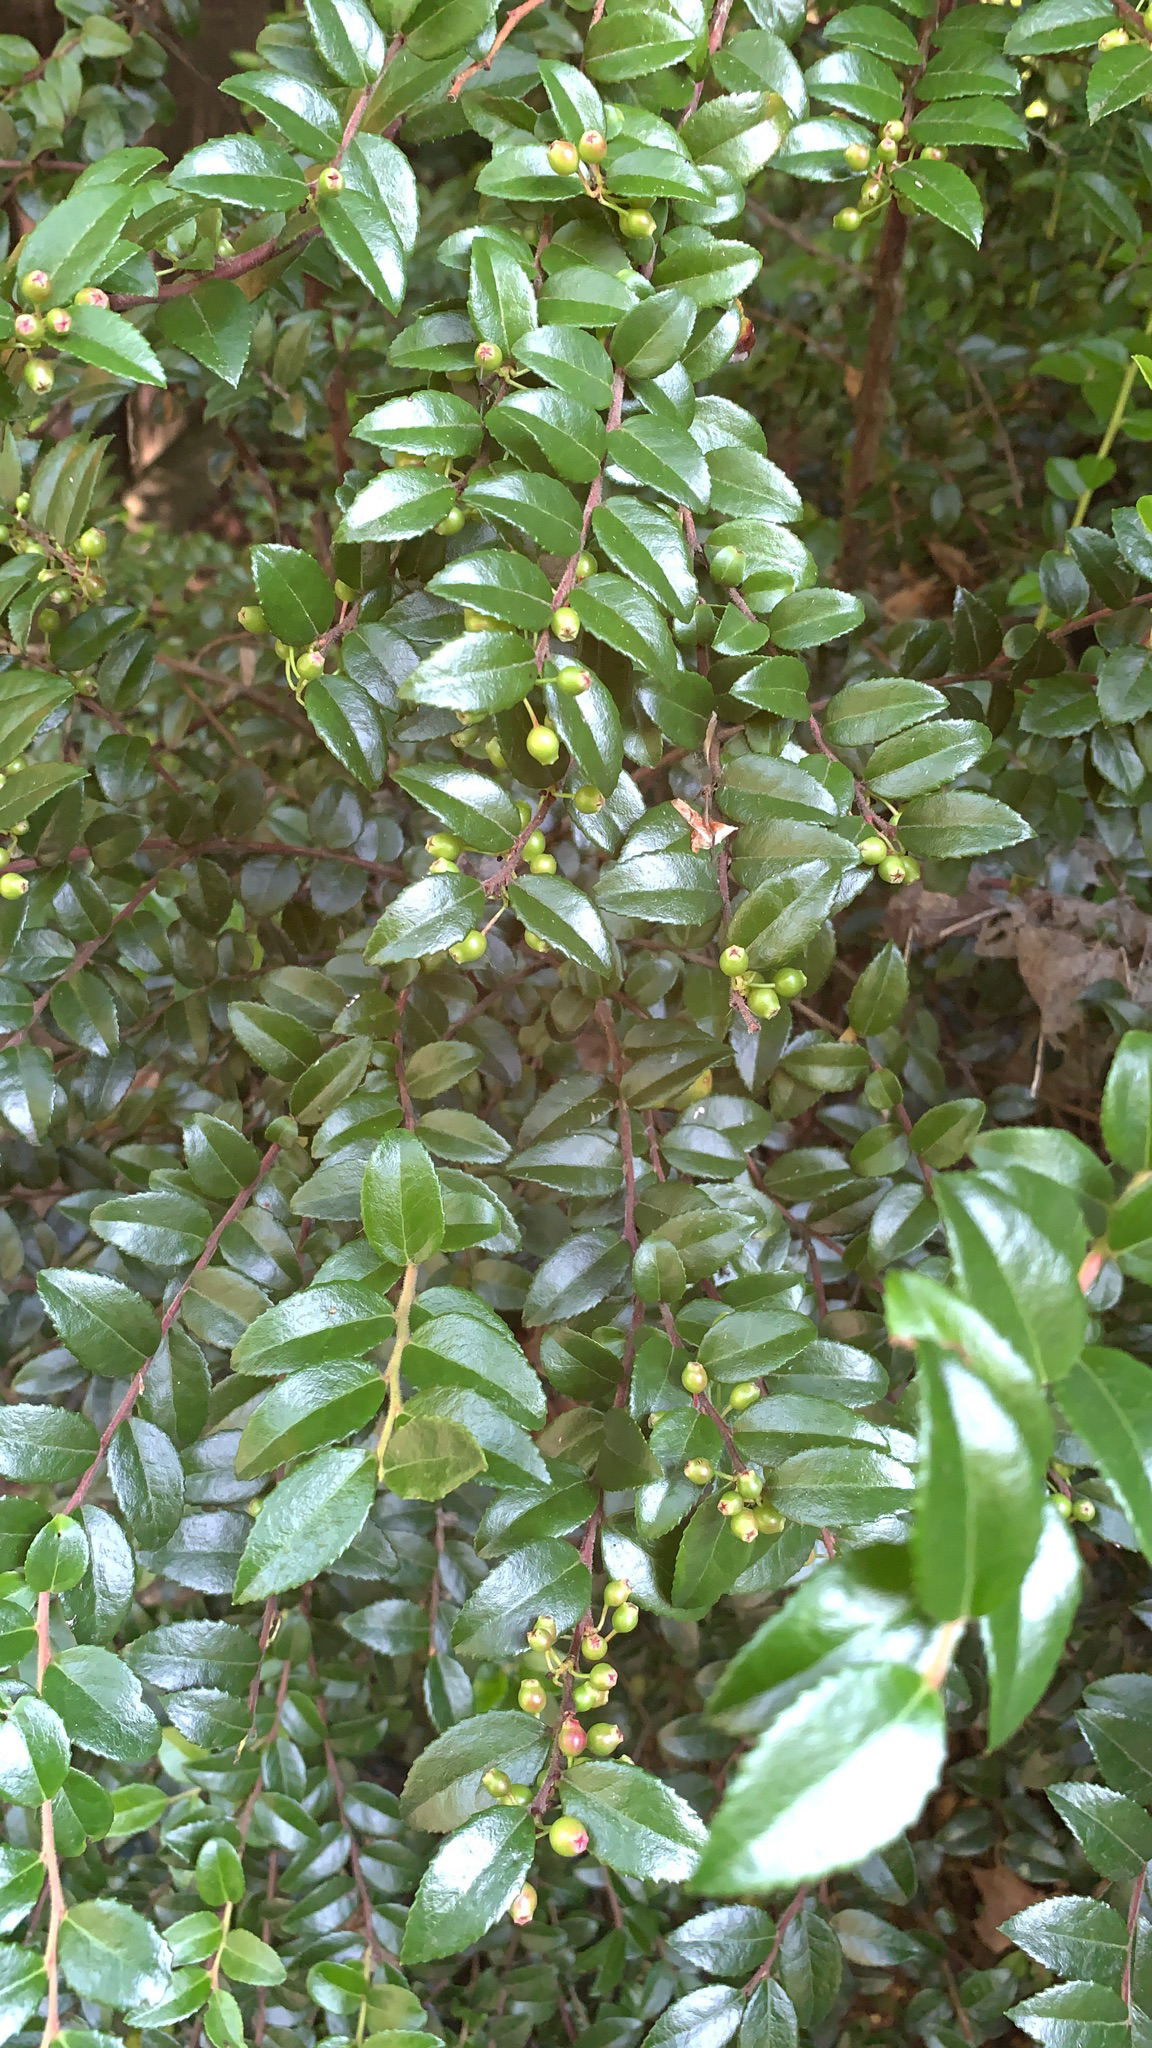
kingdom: Plantae
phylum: Tracheophyta
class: Magnoliopsida
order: Ericales
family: Ericaceae
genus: Vaccinium
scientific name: Vaccinium ovatum
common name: California-huckleberry
